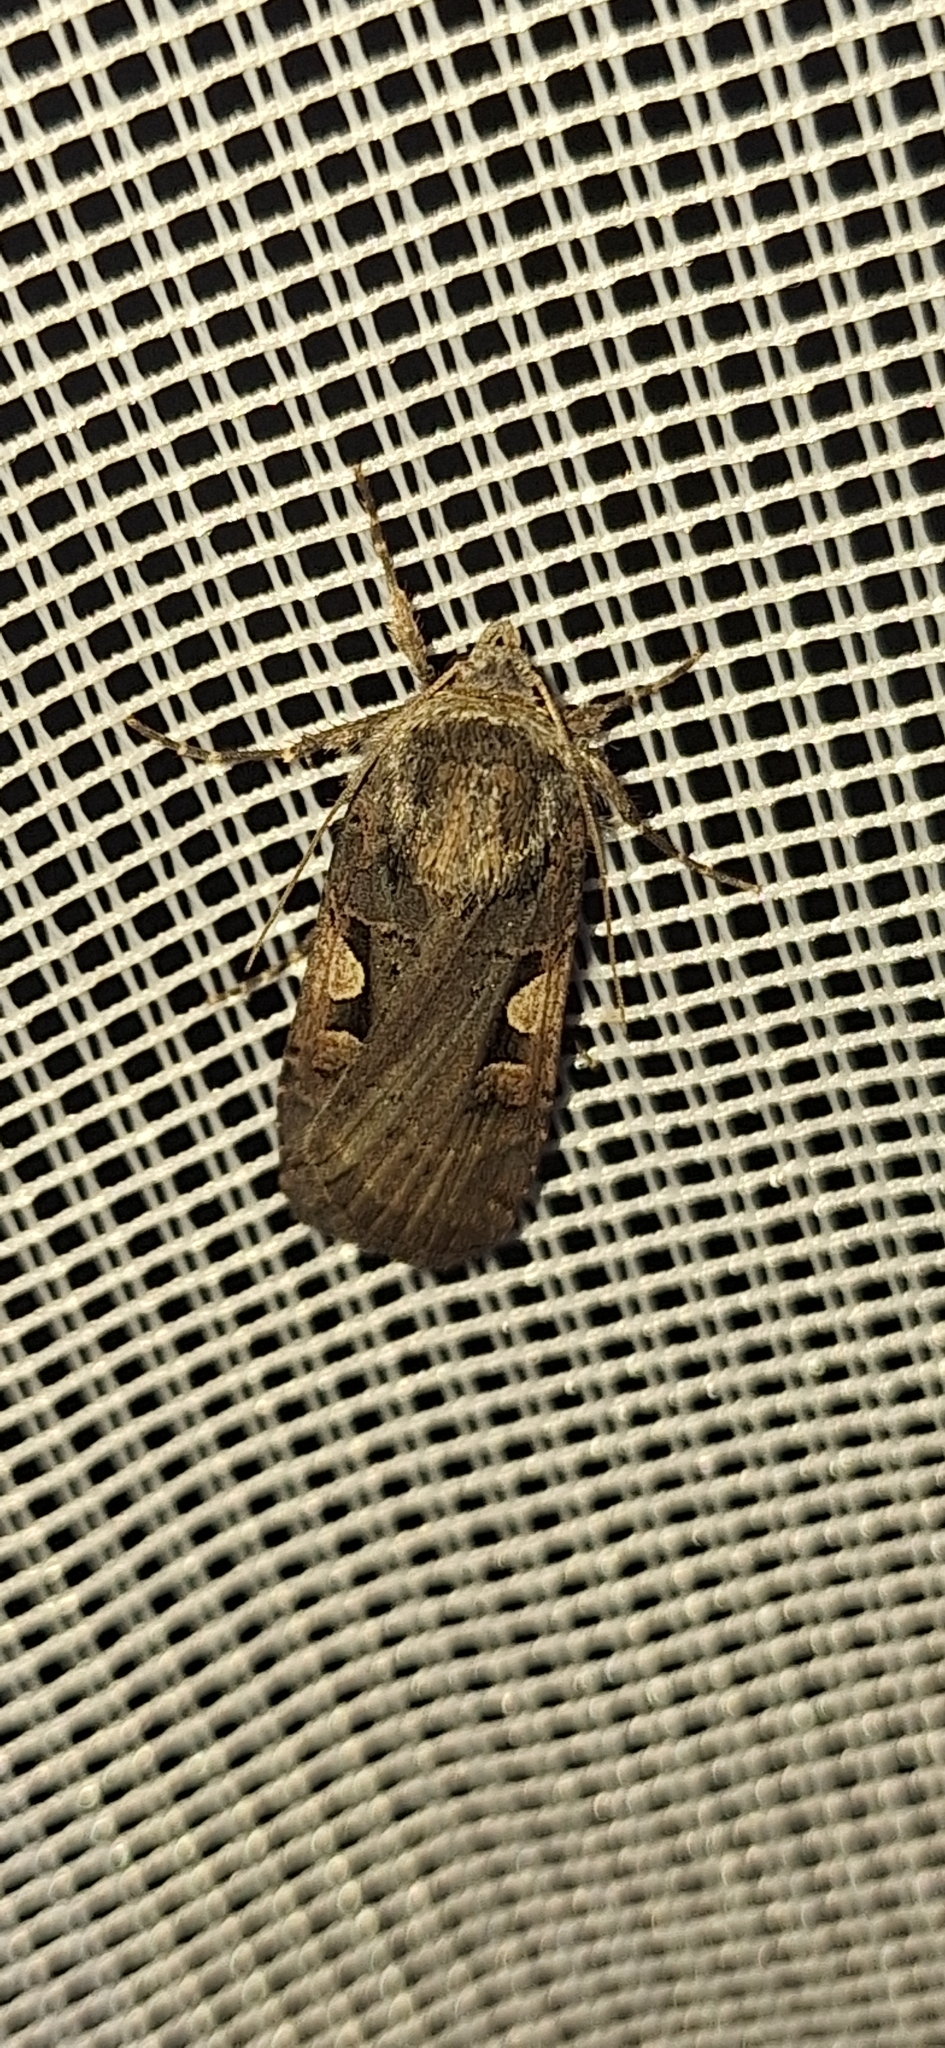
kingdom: Animalia
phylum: Arthropoda
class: Insecta
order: Lepidoptera
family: Noctuidae
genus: Xestia
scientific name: Xestia c-nigrum
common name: Setaceous hebrew character
